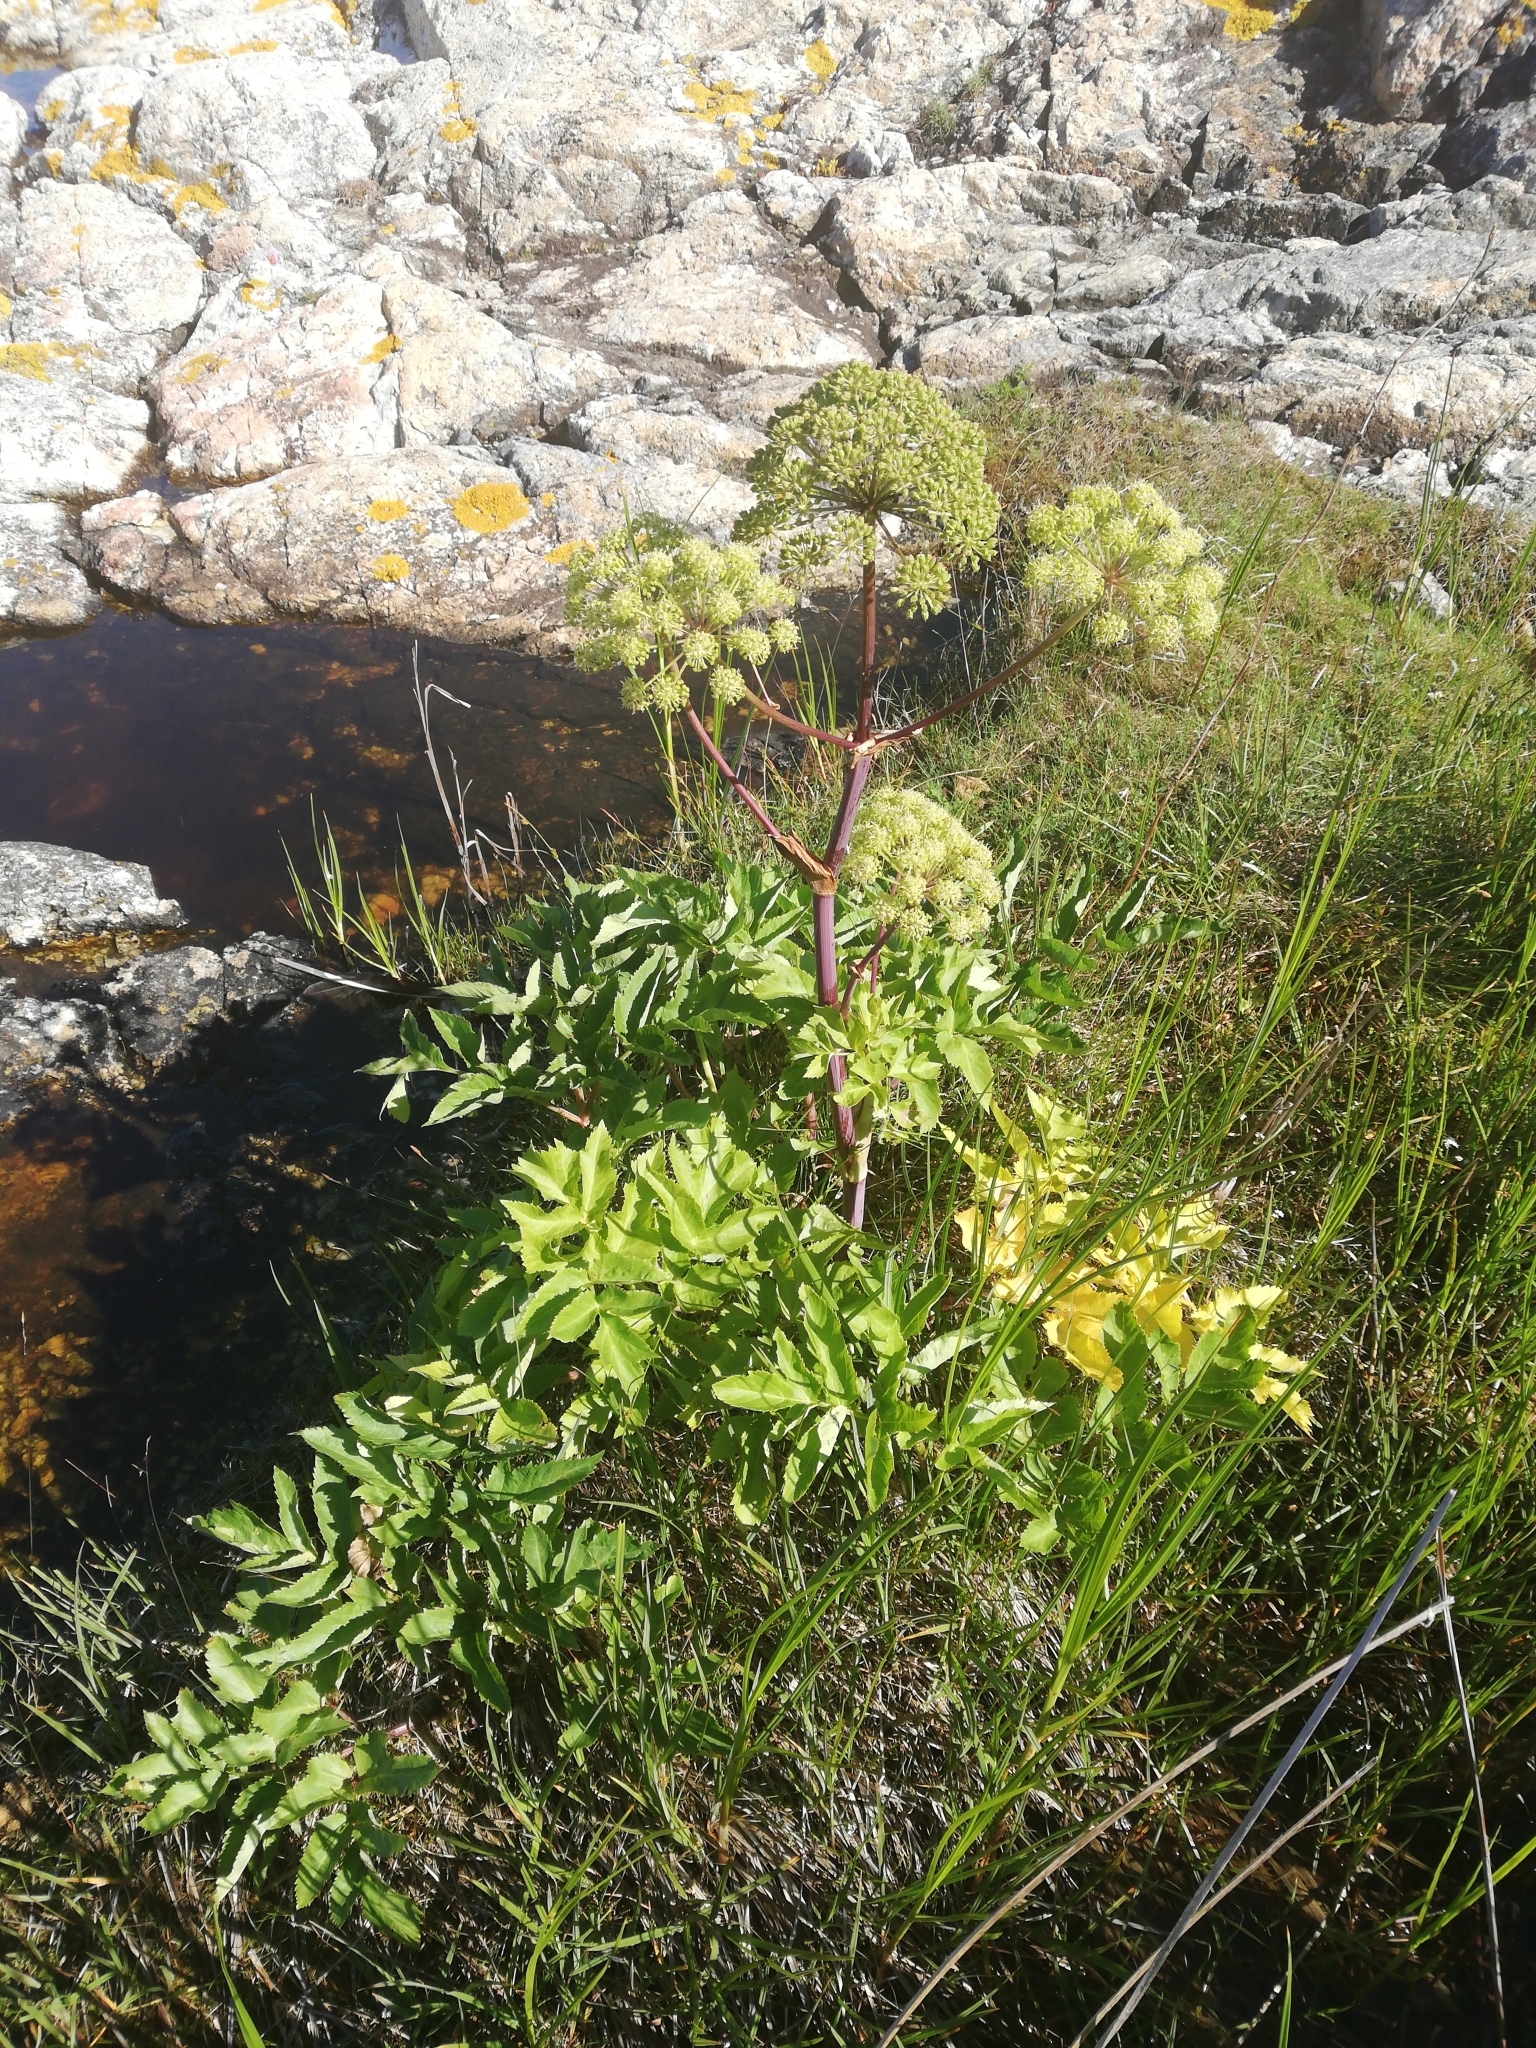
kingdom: Plantae
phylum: Tracheophyta
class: Magnoliopsida
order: Apiales
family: Apiaceae
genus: Angelica
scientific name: Angelica archangelica
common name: Garden angelica
